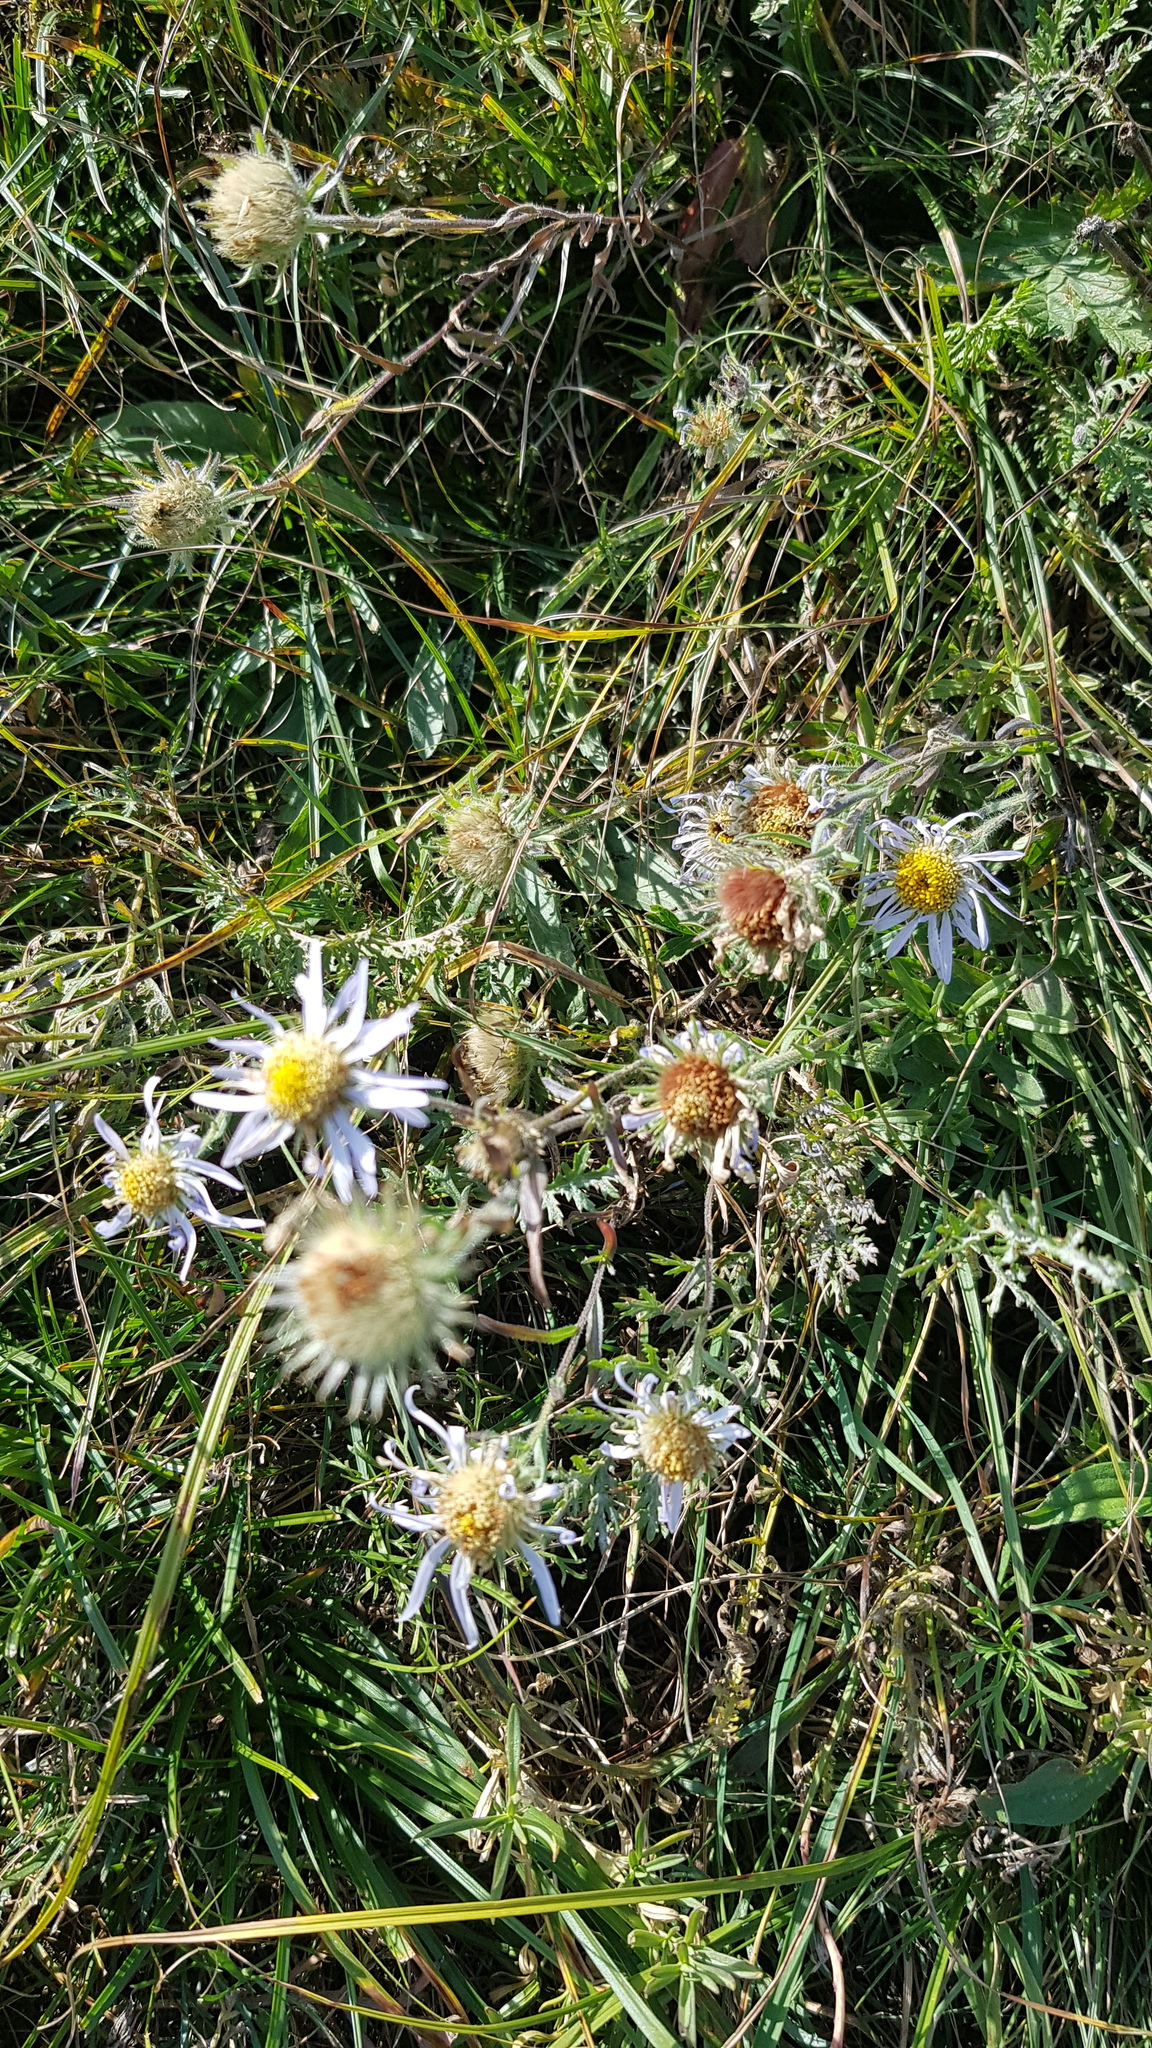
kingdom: Plantae
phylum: Tracheophyta
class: Magnoliopsida
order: Asterales
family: Asteraceae
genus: Heteropappus
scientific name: Heteropappus altaicus
